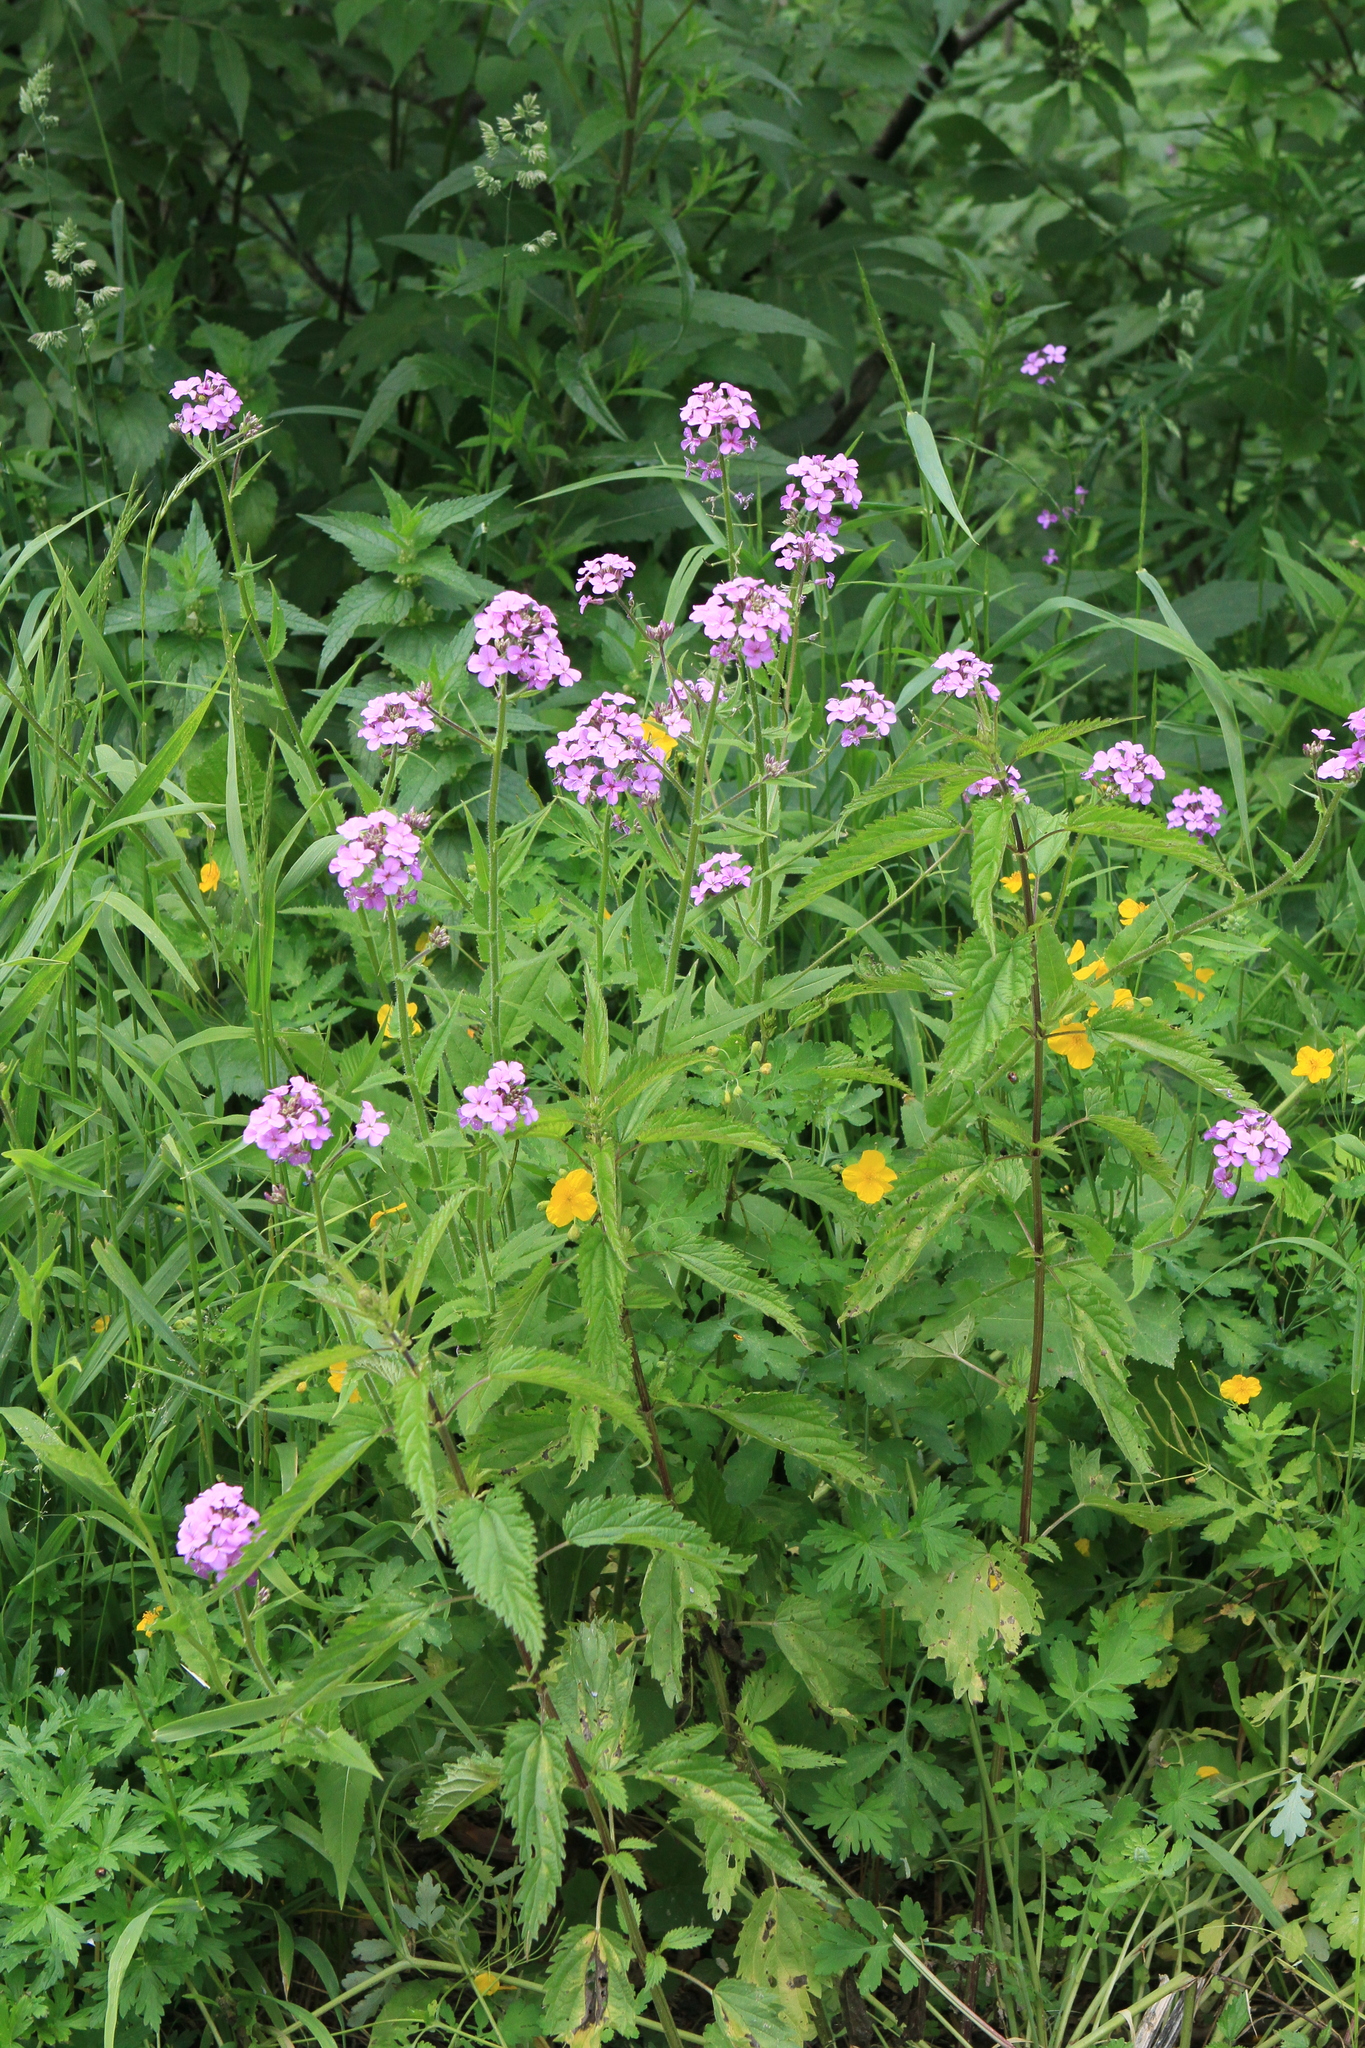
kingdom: Plantae
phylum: Tracheophyta
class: Magnoliopsida
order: Brassicales
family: Brassicaceae
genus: Hesperis
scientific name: Hesperis sibirica
